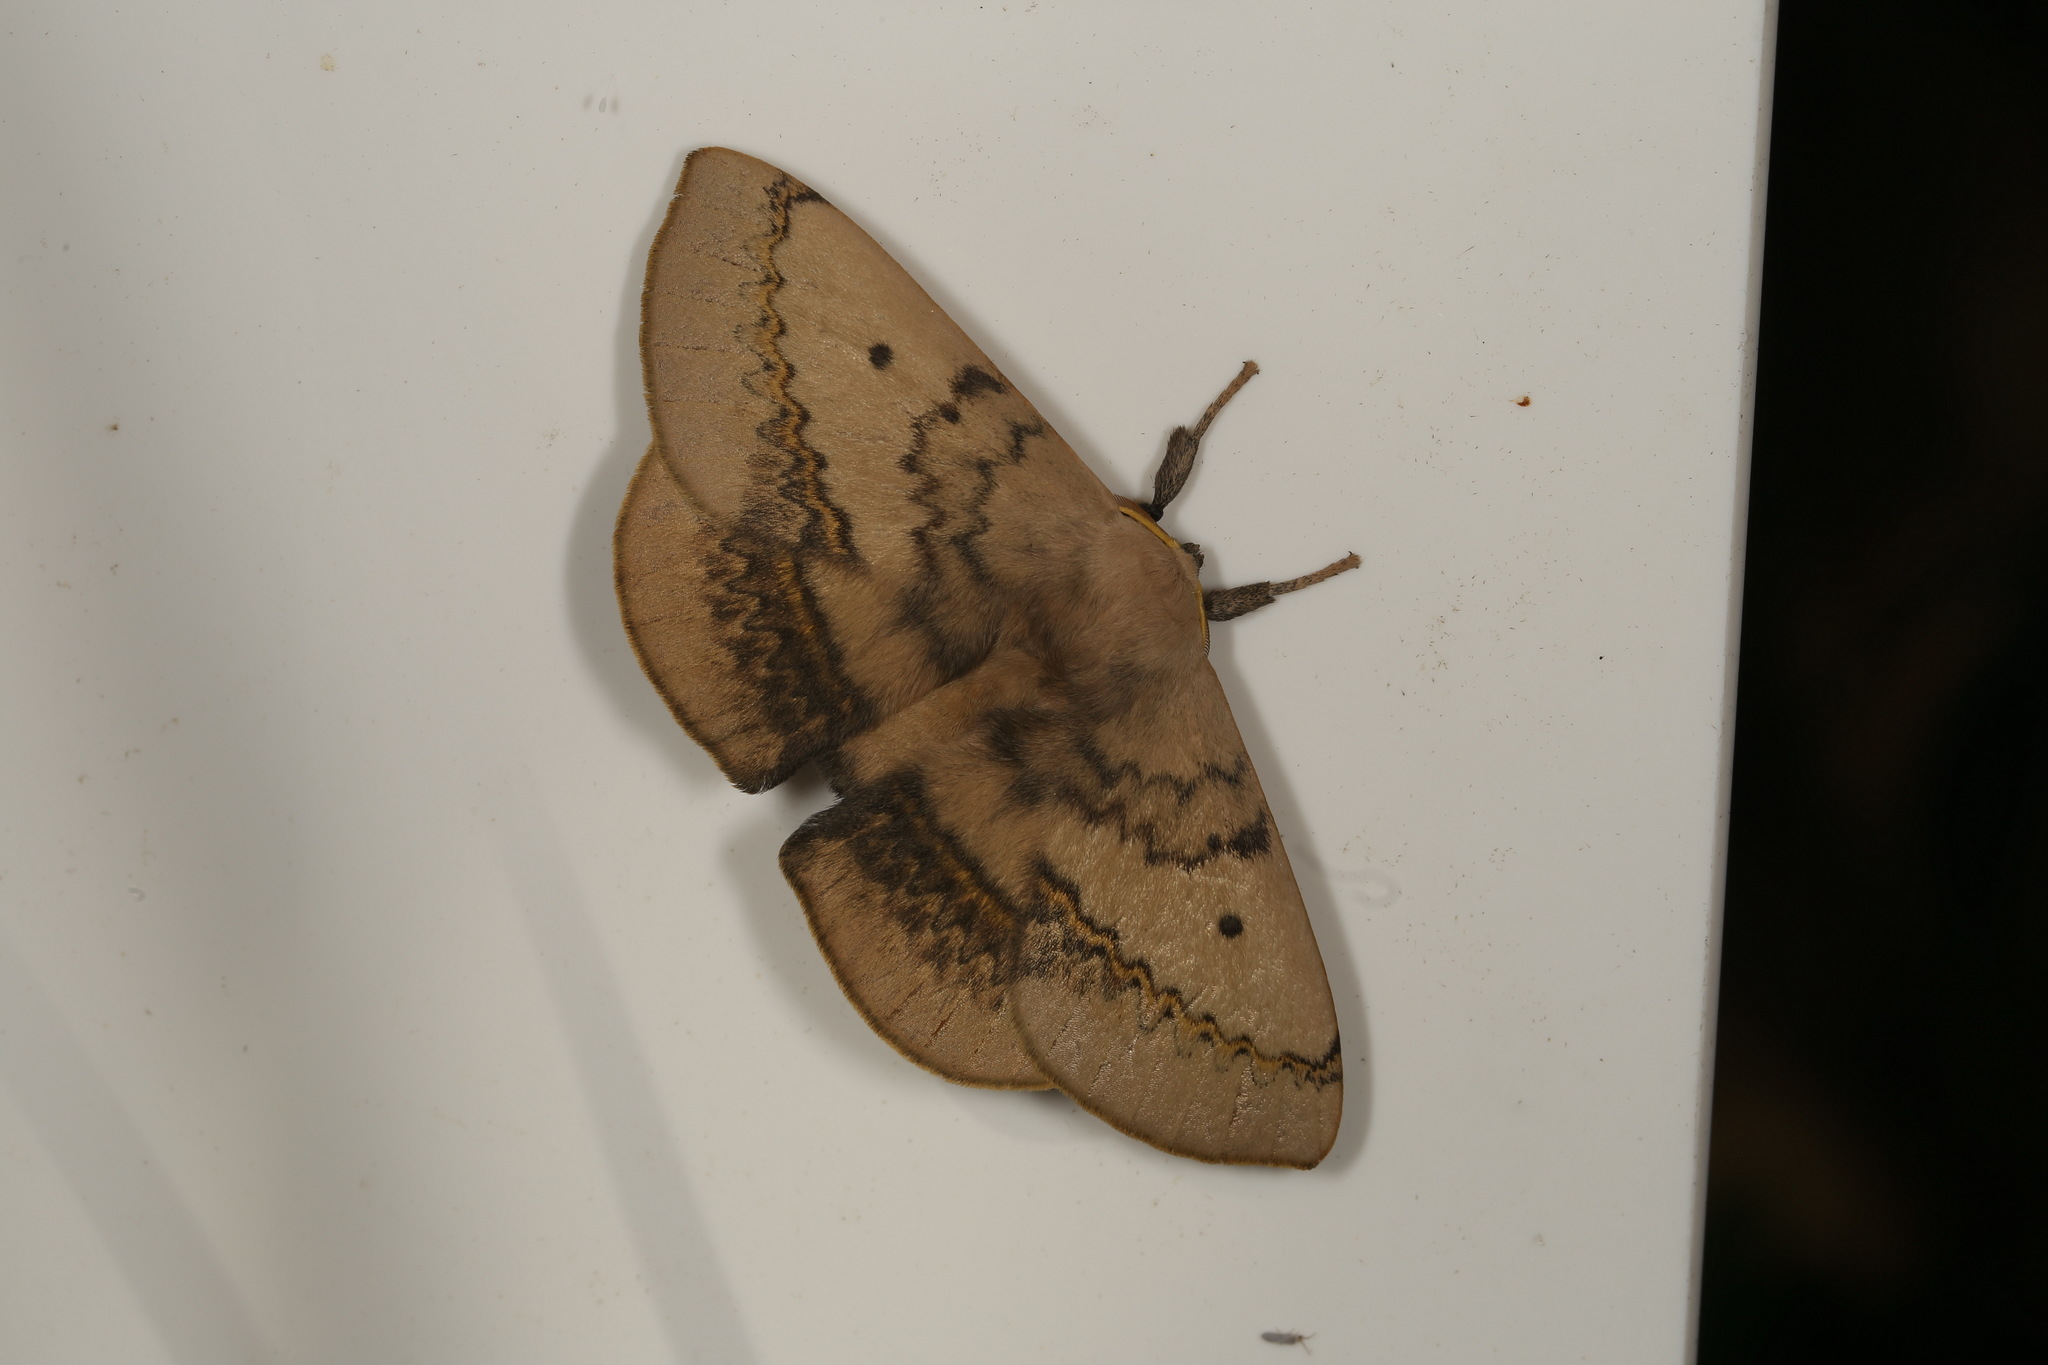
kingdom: Animalia
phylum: Arthropoda
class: Insecta
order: Lepidoptera
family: Anthelidae
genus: Anthela
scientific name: Anthela varia
